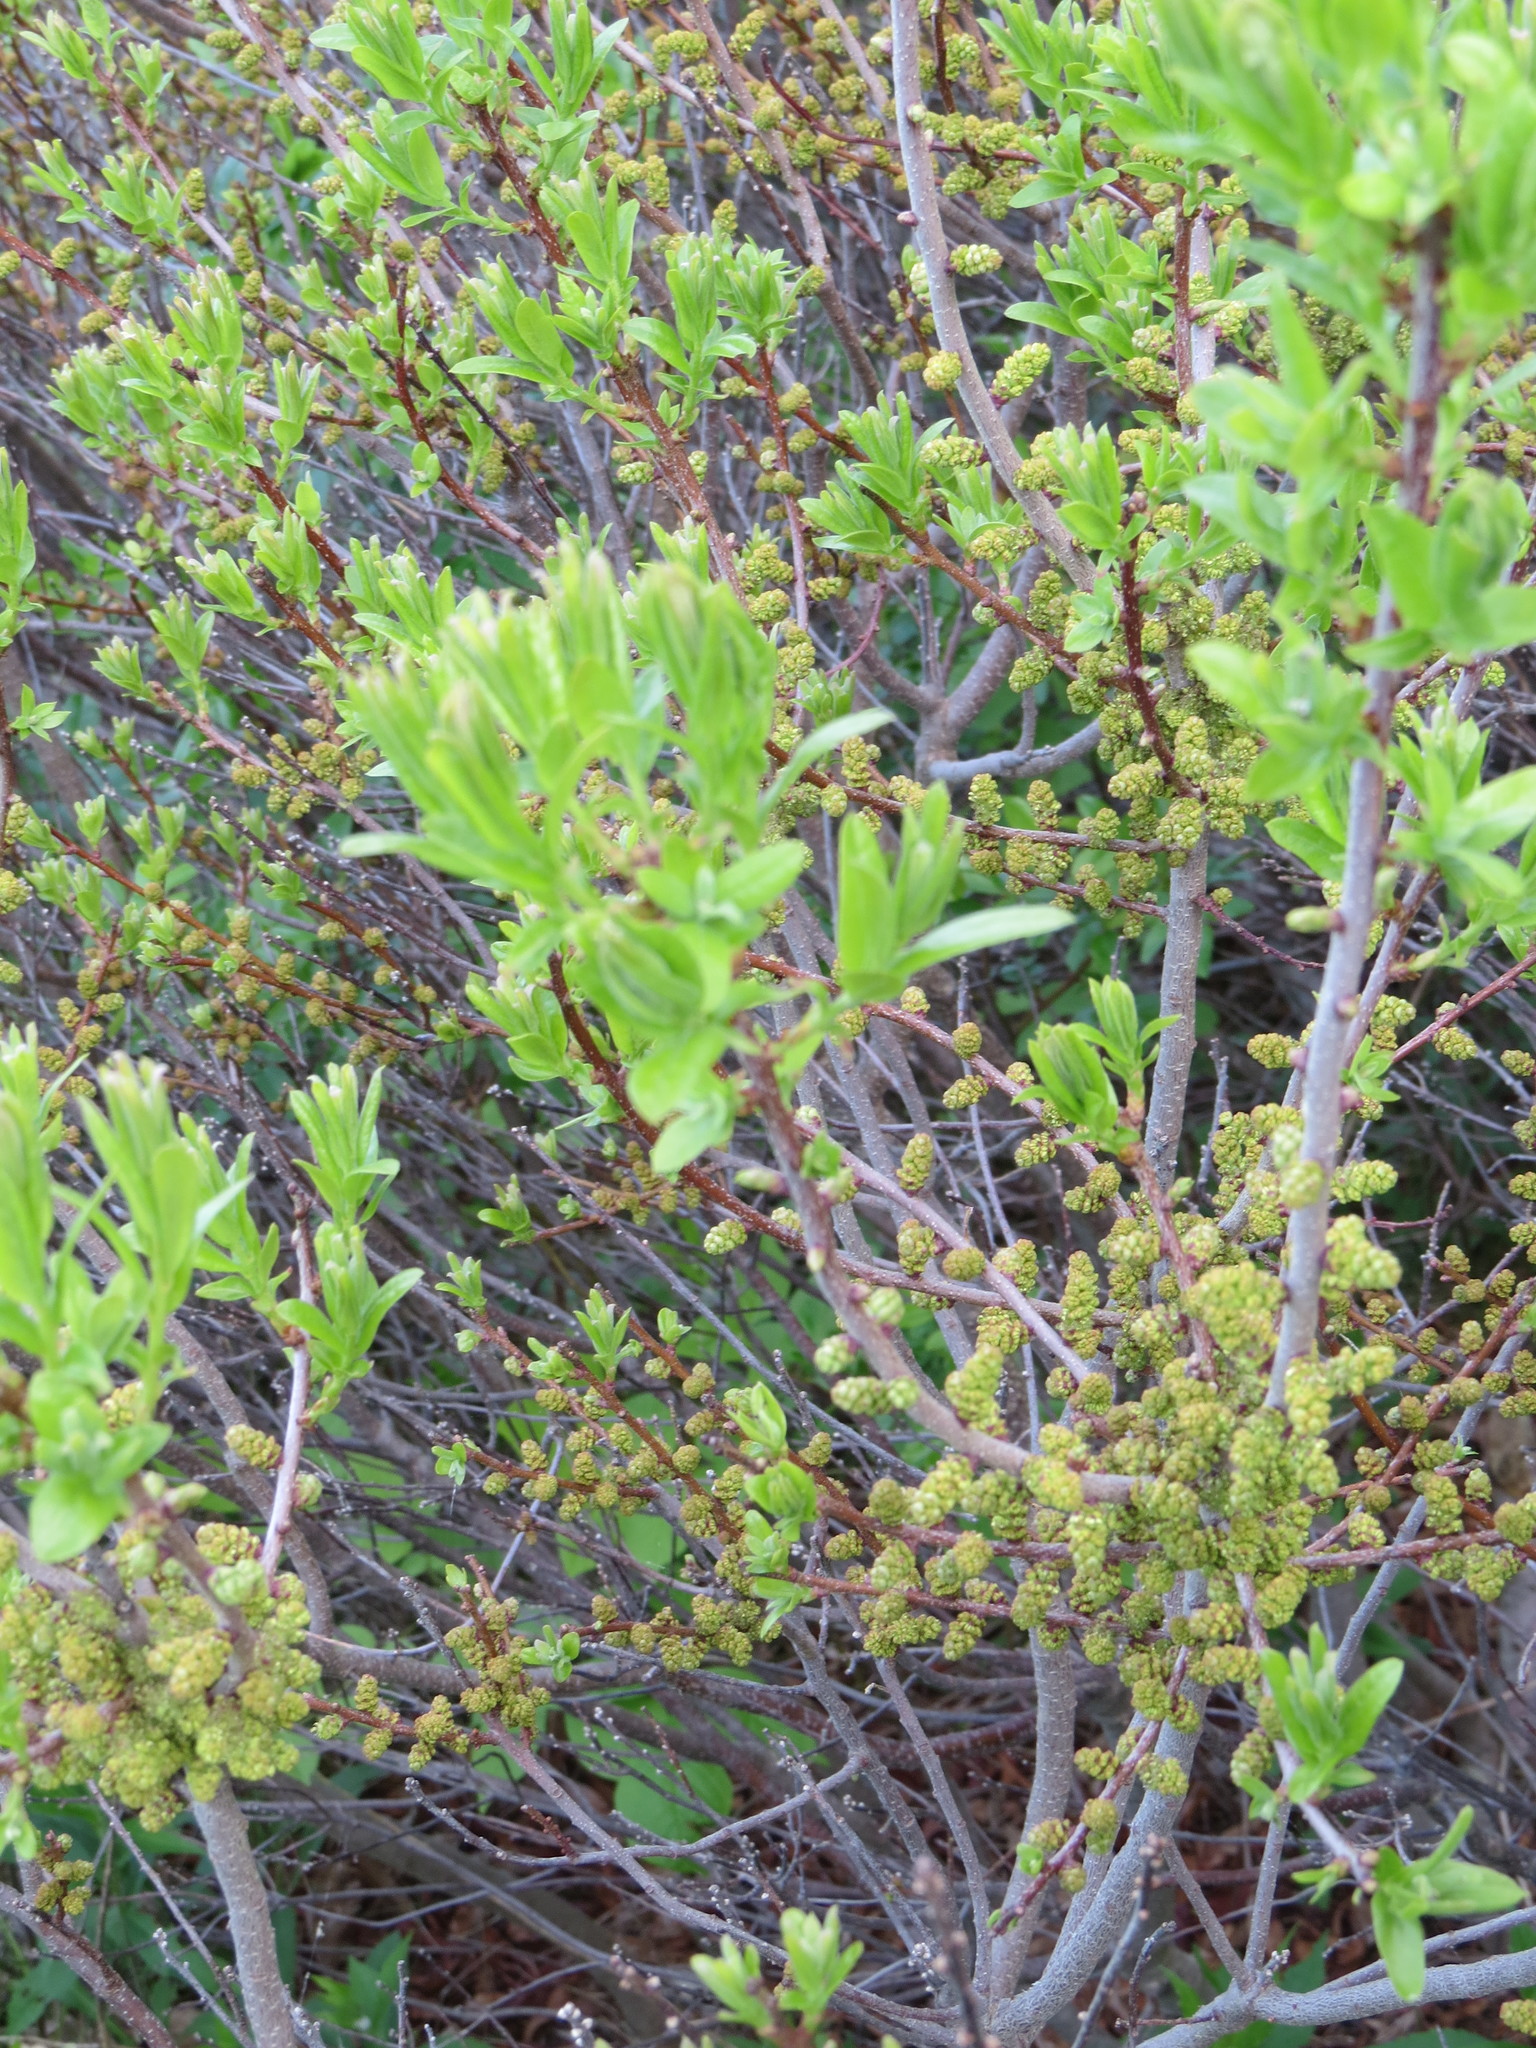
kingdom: Plantae
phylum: Tracheophyta
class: Magnoliopsida
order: Fagales
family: Myricaceae
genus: Morella
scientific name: Morella pensylvanica
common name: Northern bayberry
